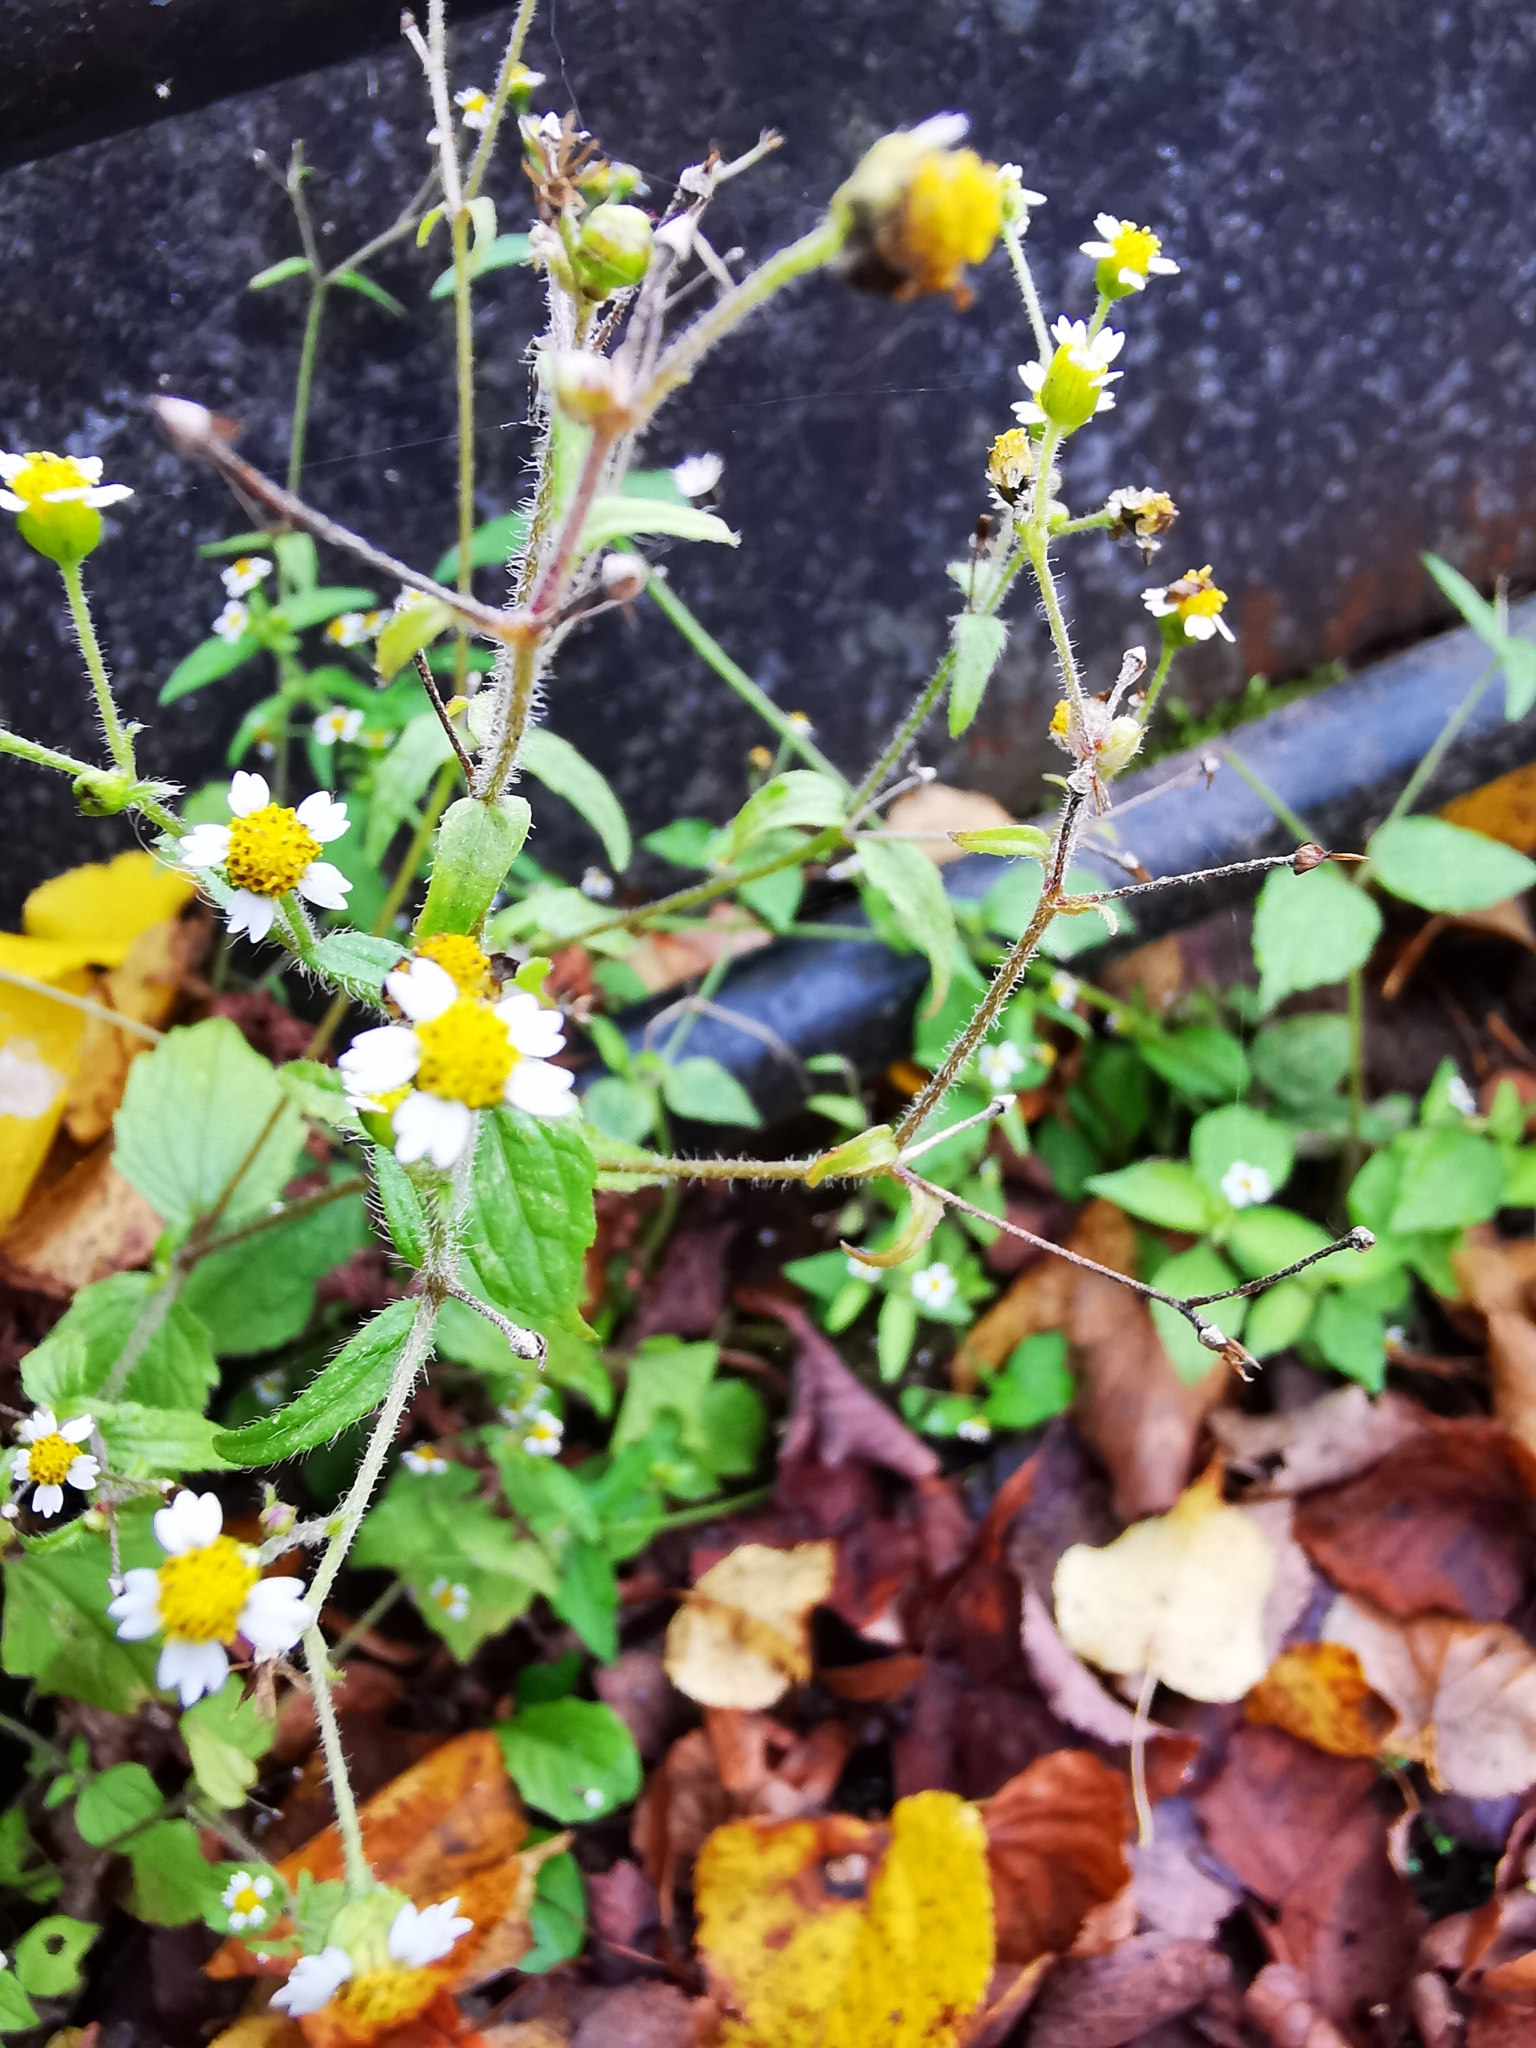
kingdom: Plantae
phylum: Tracheophyta
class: Magnoliopsida
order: Asterales
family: Asteraceae
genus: Galinsoga
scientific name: Galinsoga quadriradiata
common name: Shaggy soldier
